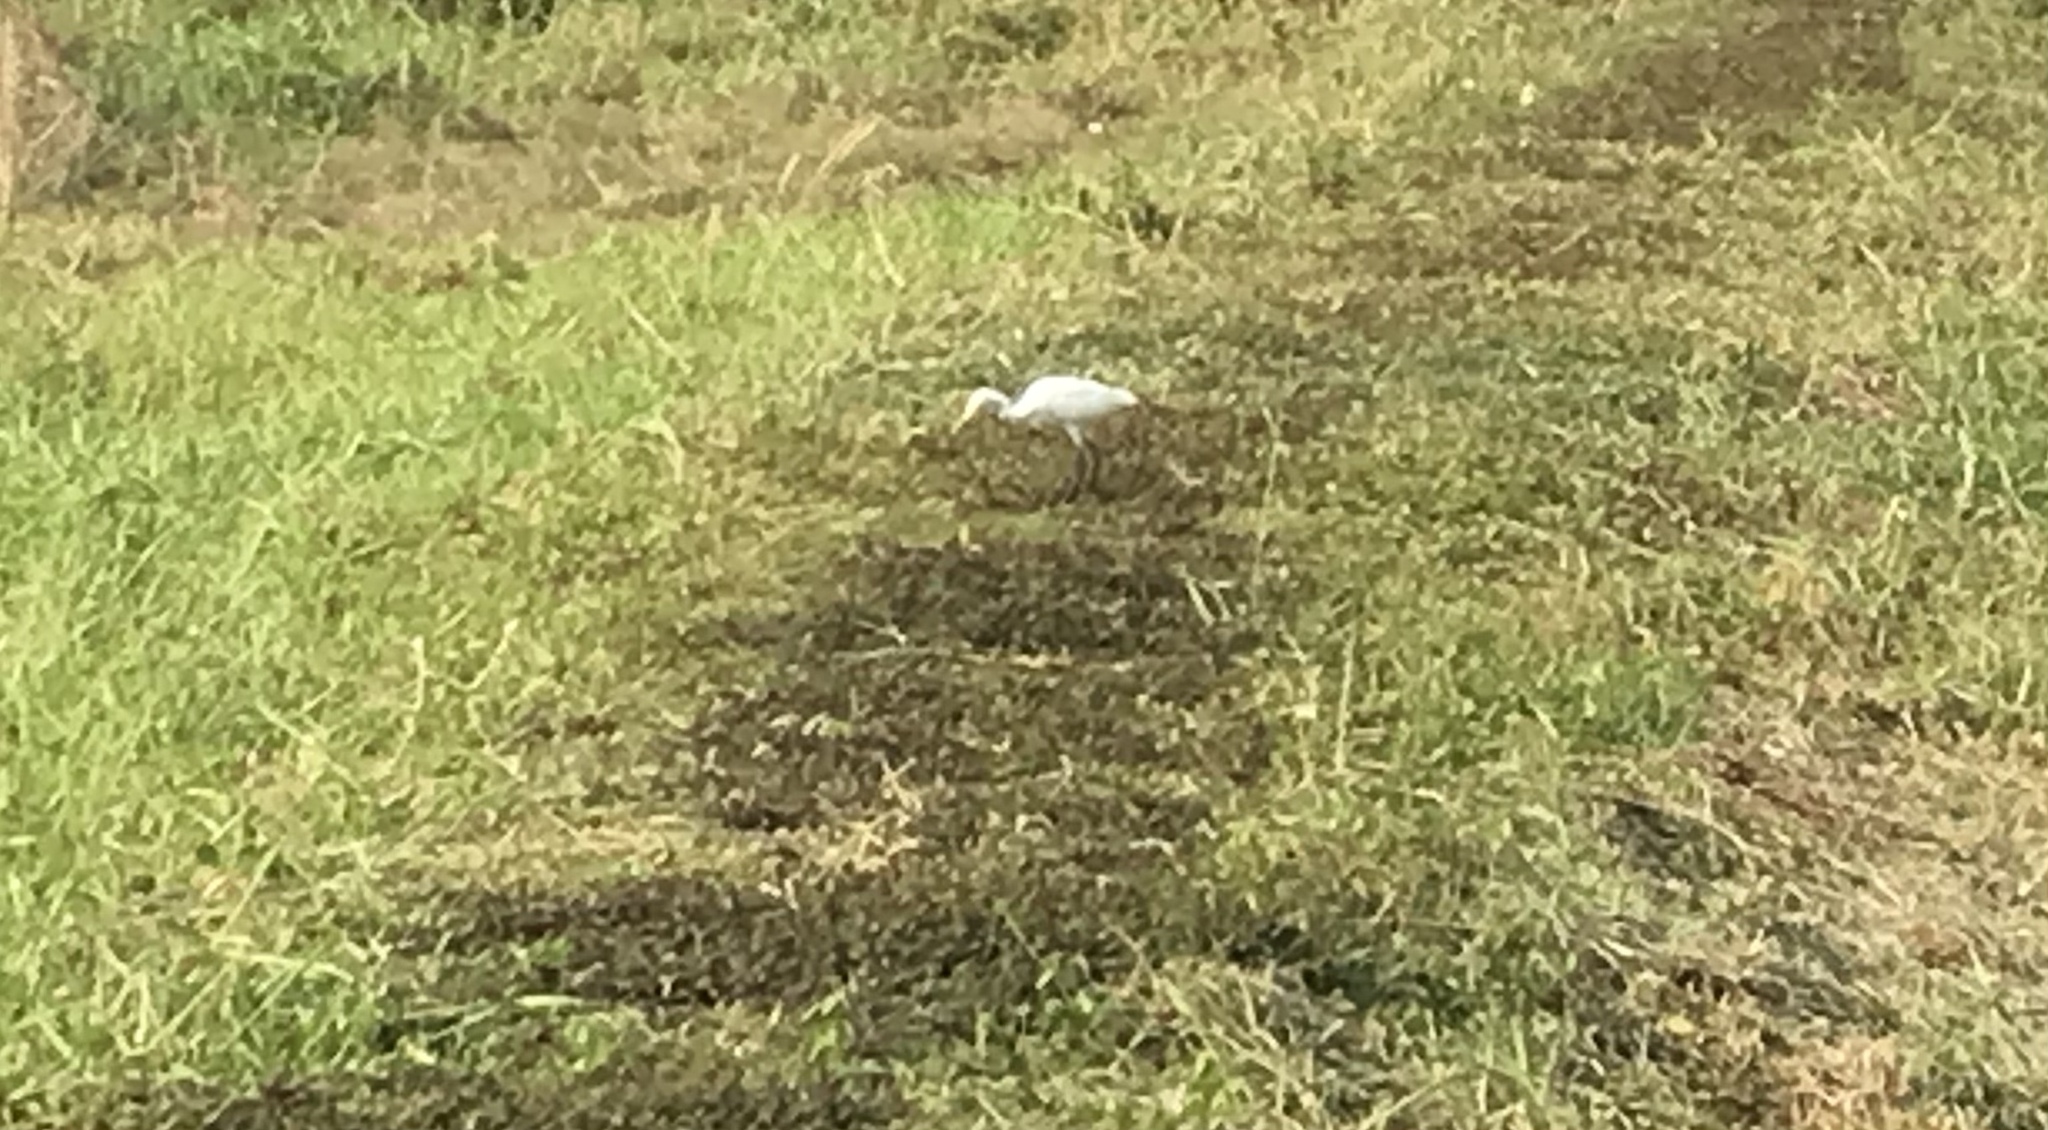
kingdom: Animalia
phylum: Chordata
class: Aves
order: Pelecaniformes
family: Ardeidae
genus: Bubulcus
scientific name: Bubulcus coromandus
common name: Eastern cattle egret
